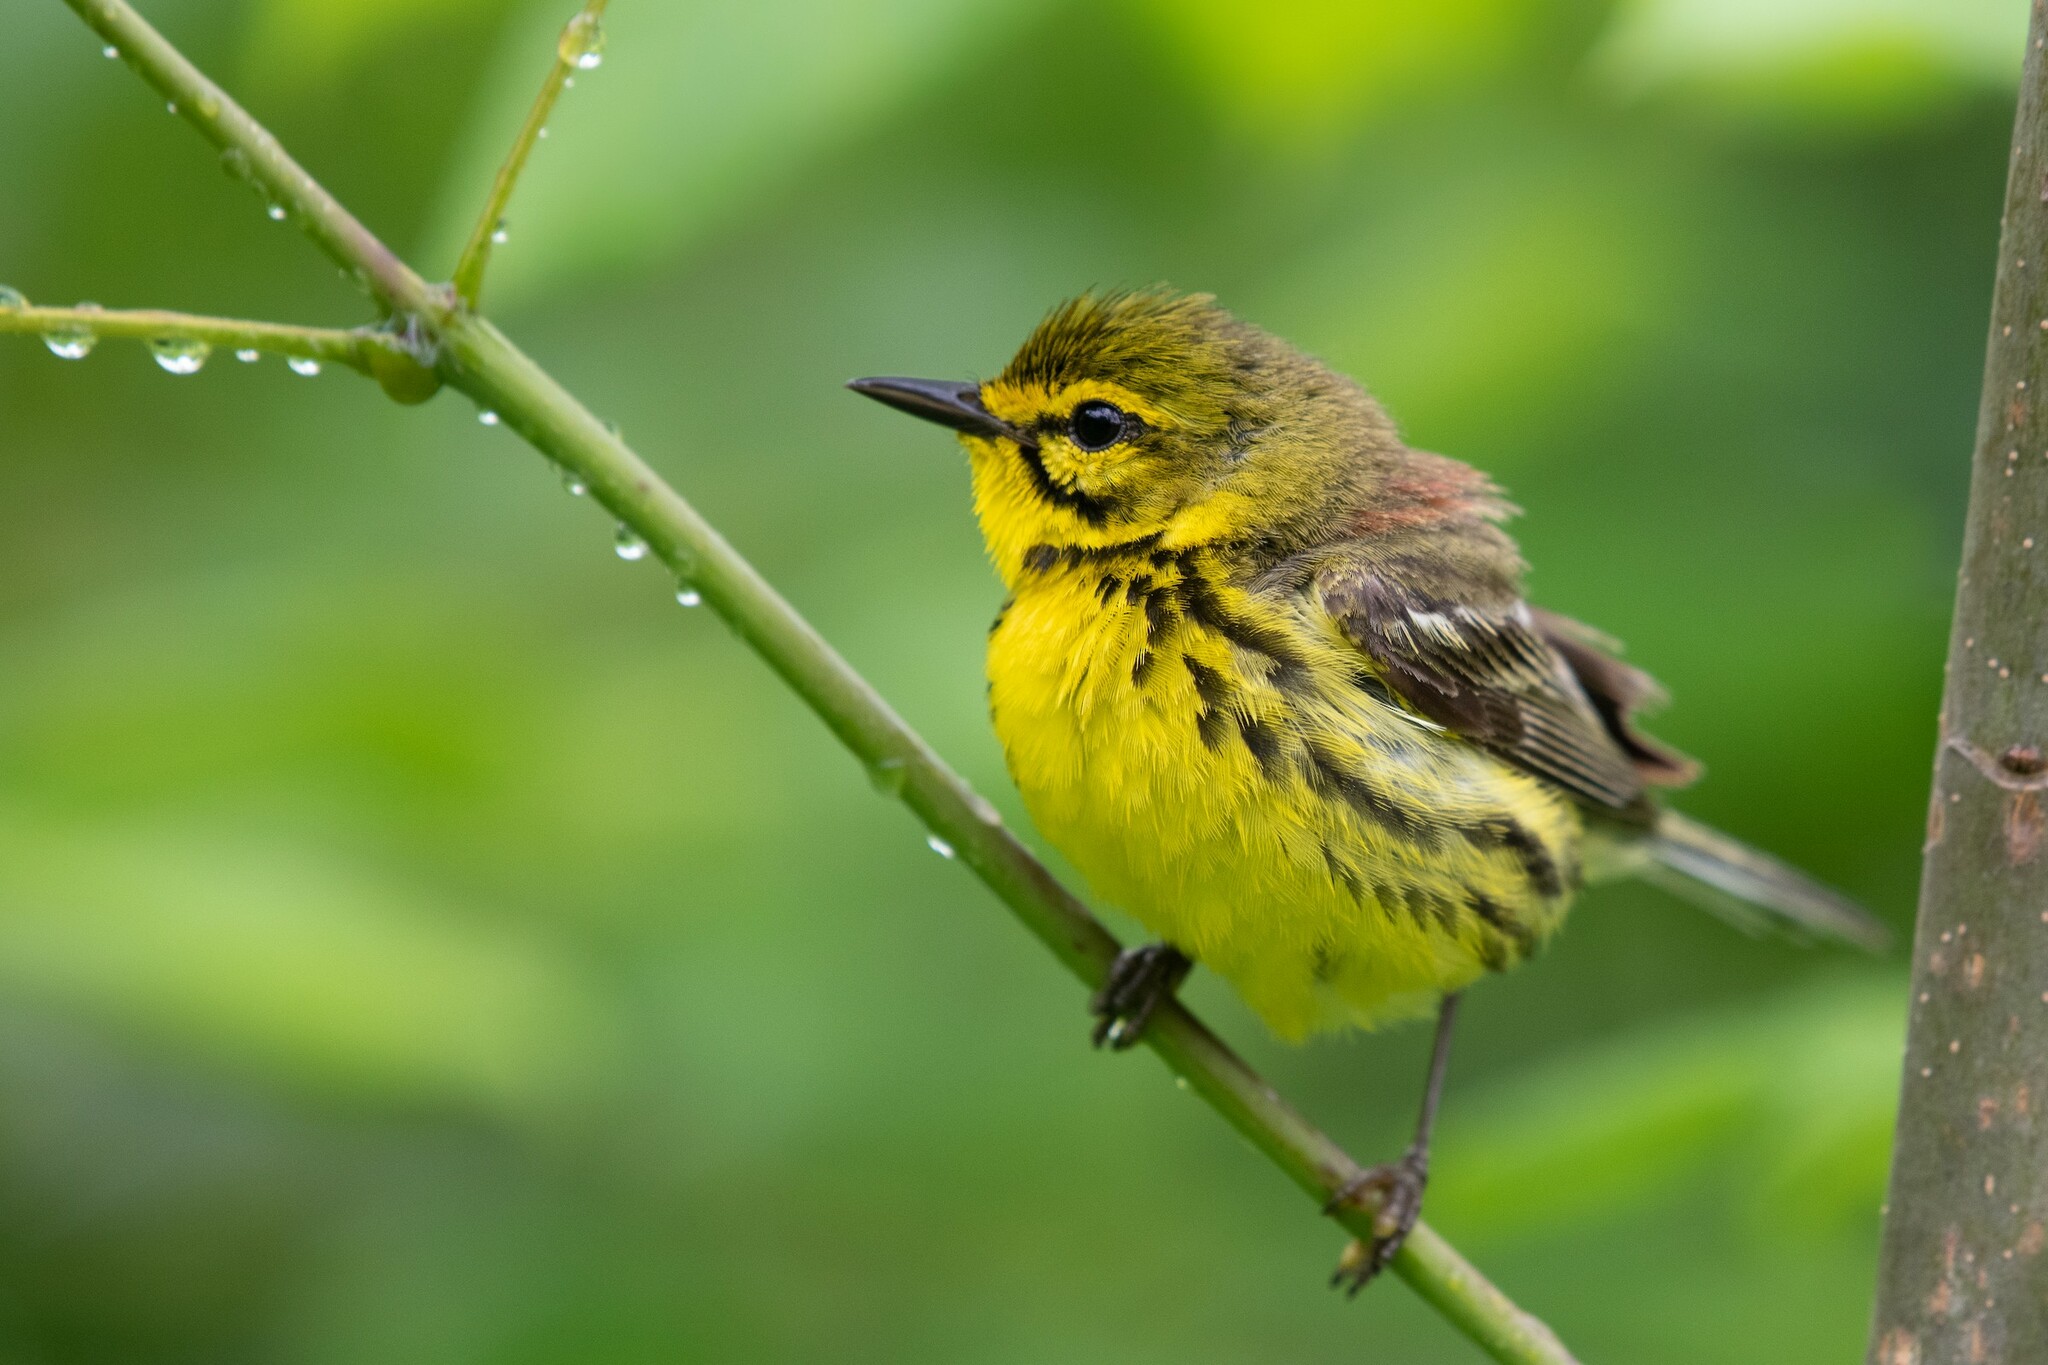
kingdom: Animalia
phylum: Chordata
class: Aves
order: Passeriformes
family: Parulidae
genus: Setophaga
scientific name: Setophaga discolor
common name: Prairie warbler
